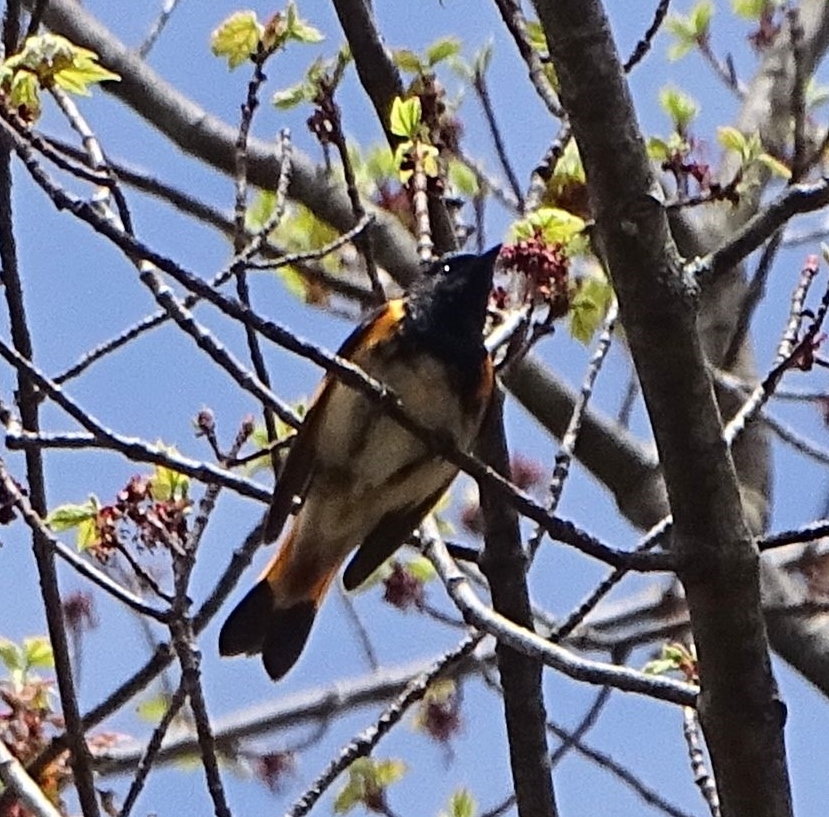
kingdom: Animalia
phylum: Chordata
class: Aves
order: Passeriformes
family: Parulidae
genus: Setophaga
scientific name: Setophaga ruticilla
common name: American redstart
